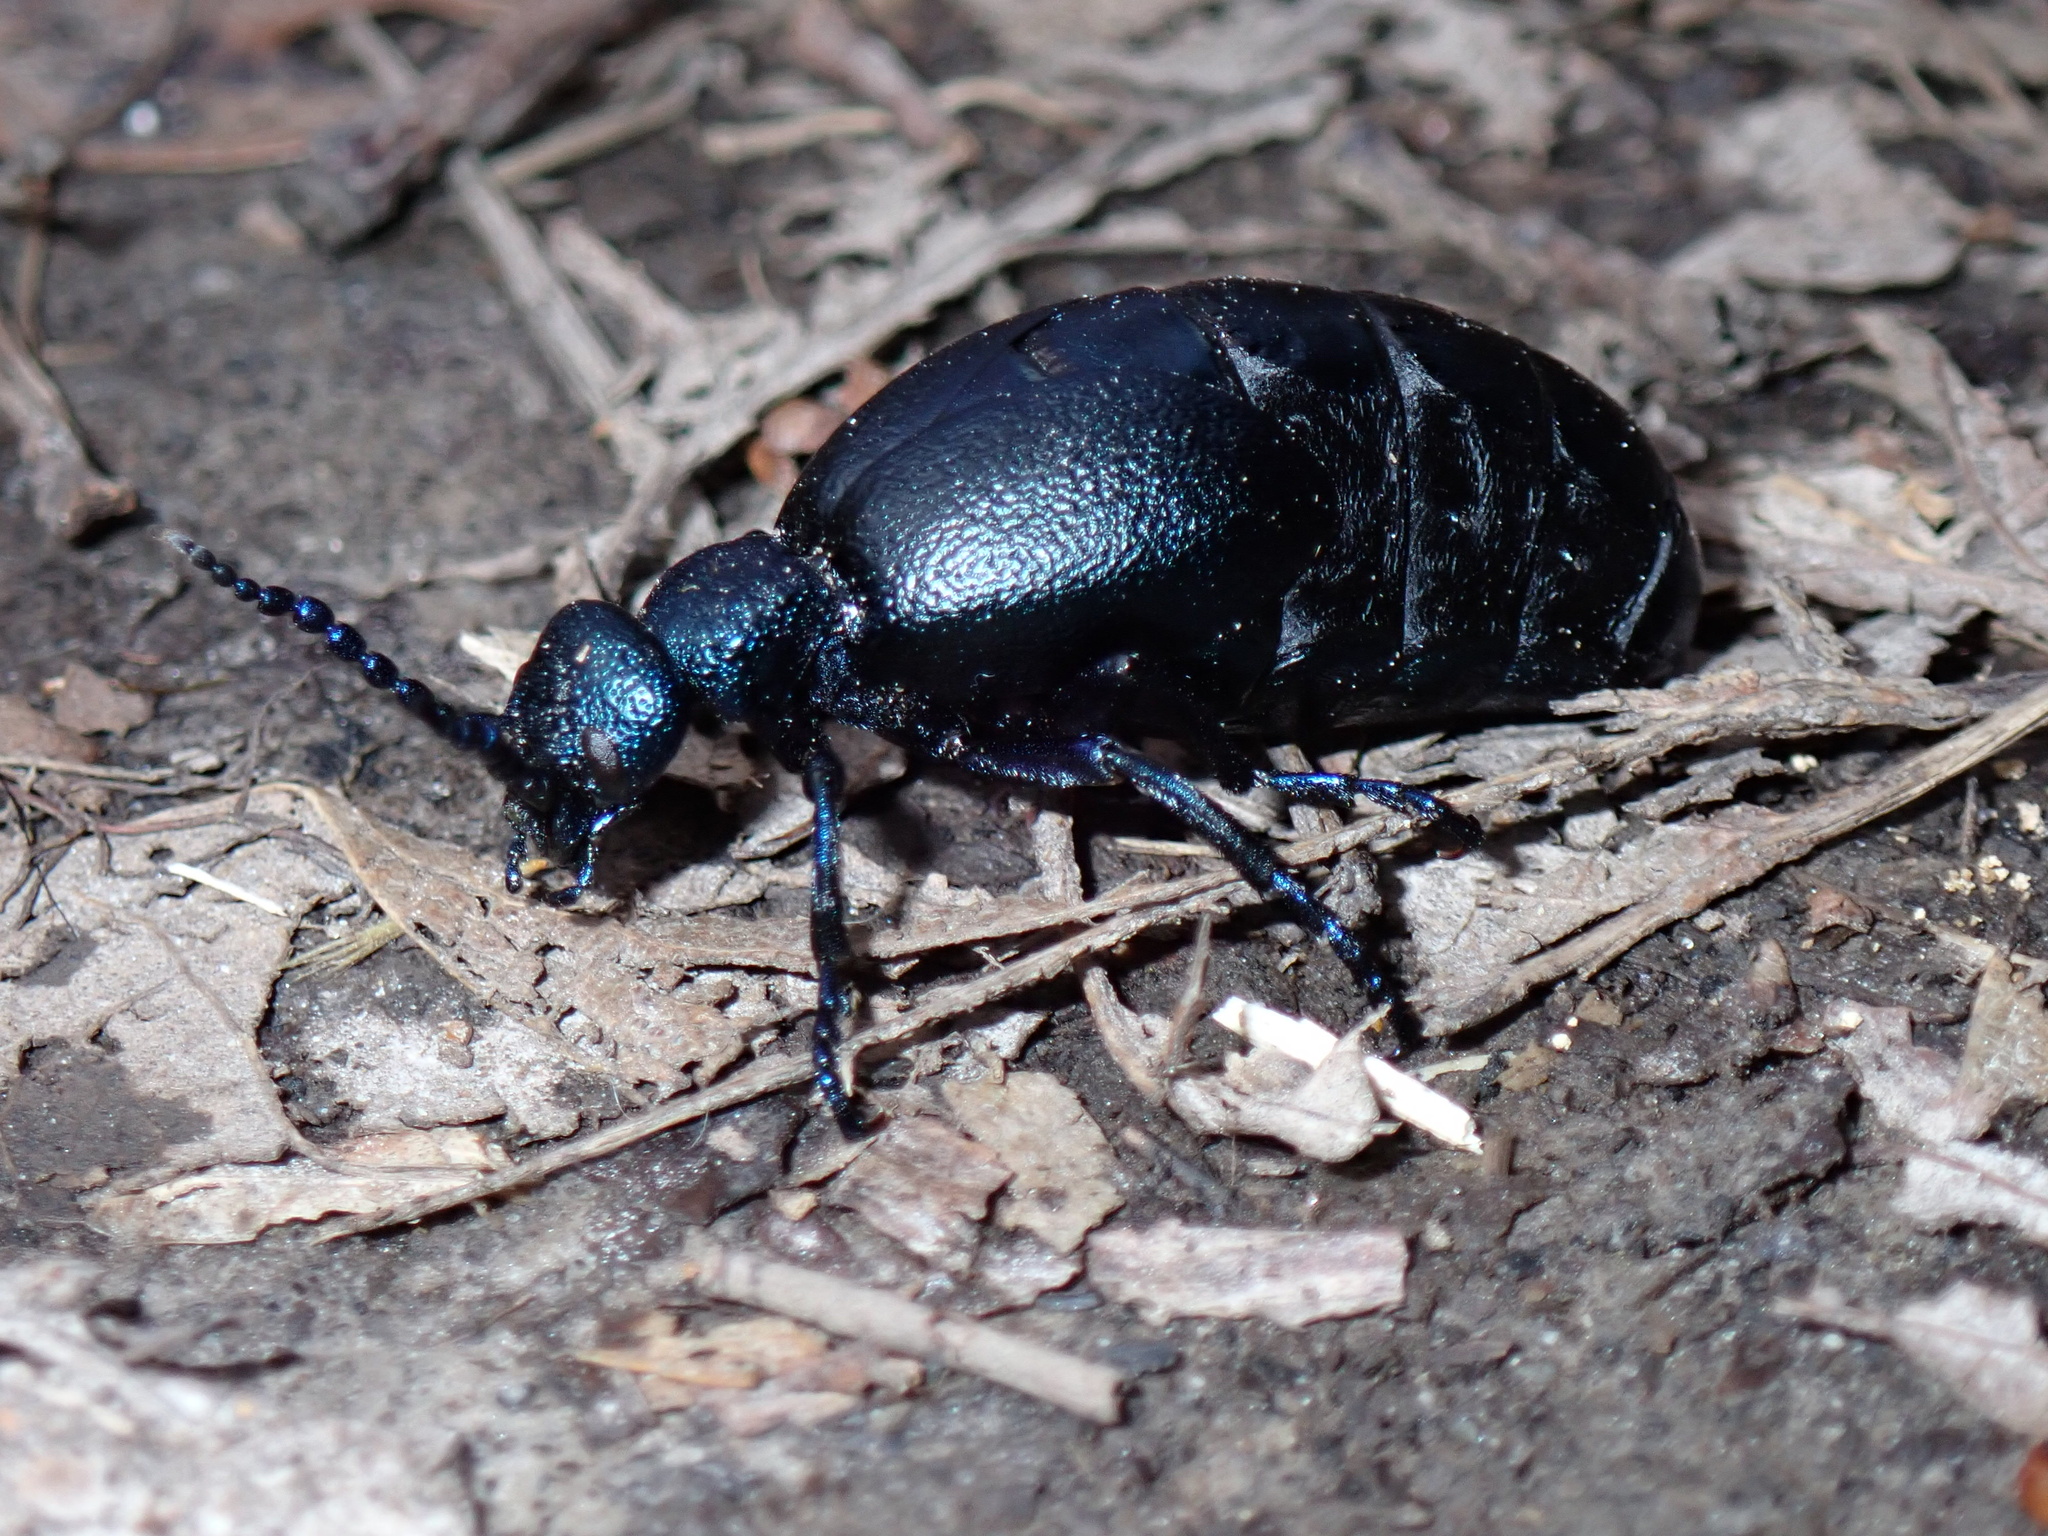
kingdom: Animalia
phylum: Arthropoda
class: Insecta
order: Coleoptera
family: Meloidae
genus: Meloe
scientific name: Meloe violaceus
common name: Violet oil-beetle
